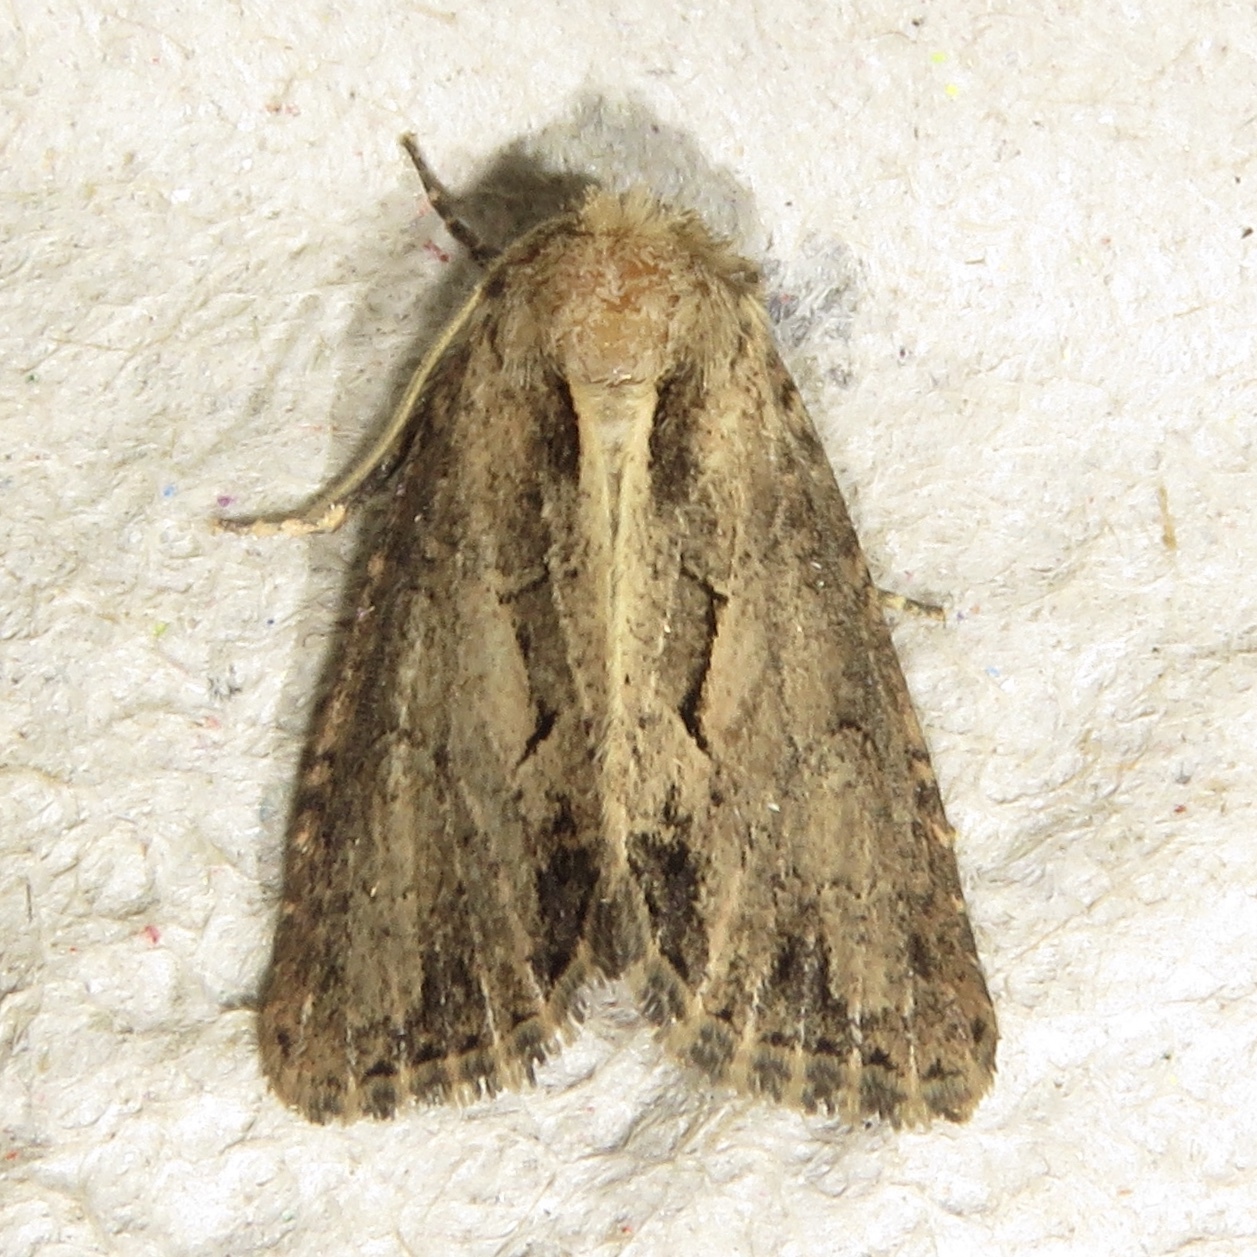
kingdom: Animalia
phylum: Arthropoda
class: Insecta
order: Lepidoptera
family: Noctuidae
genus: Xylomoia
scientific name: Xylomoia chagnoni
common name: Reed canary grass borer moth
